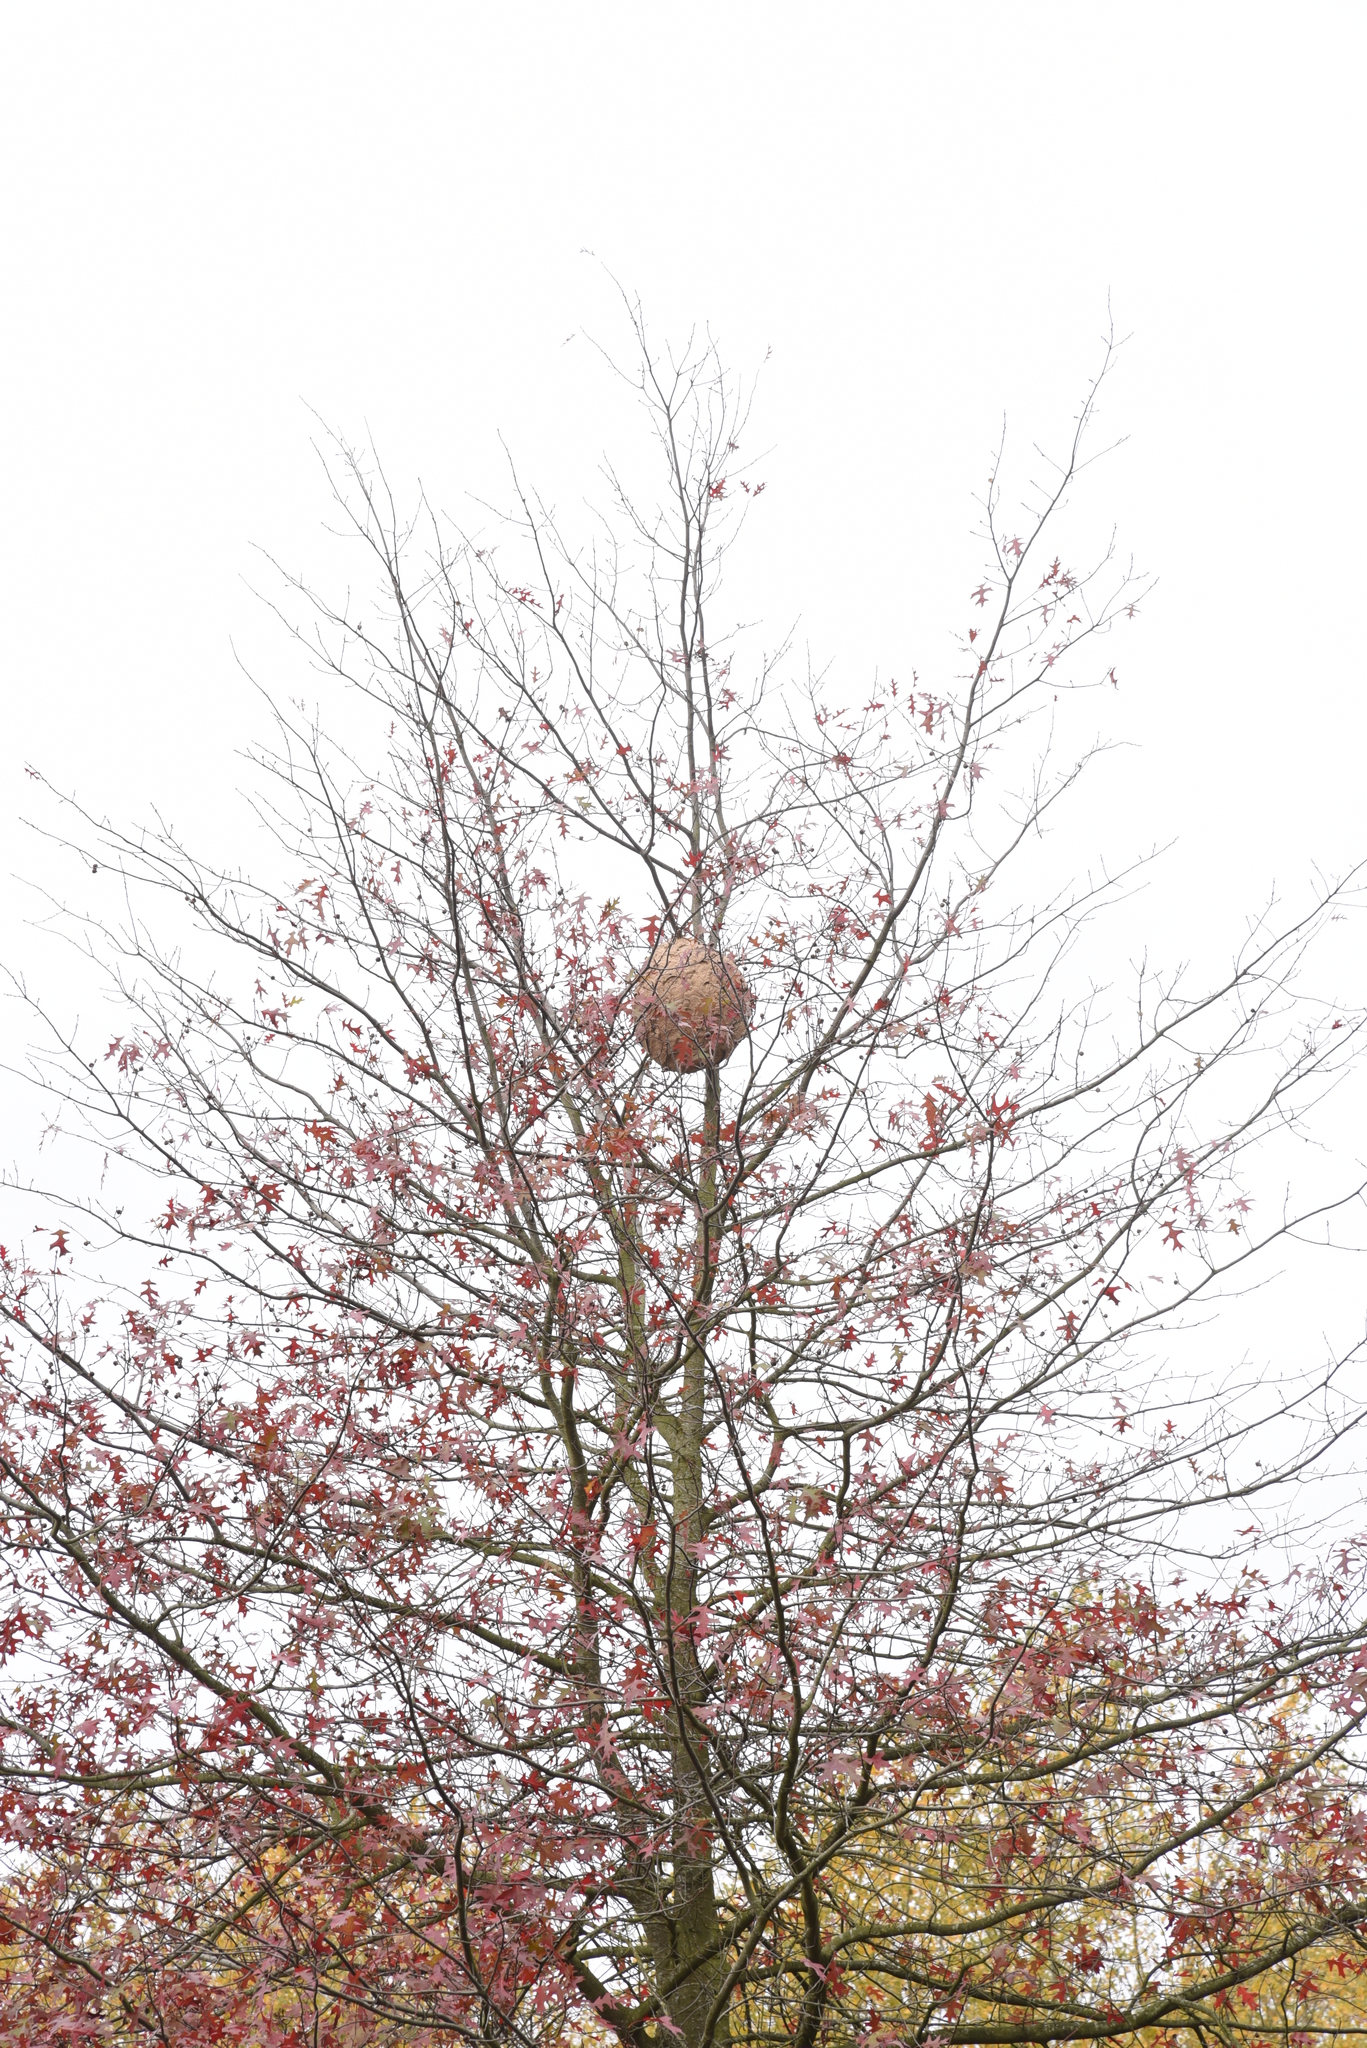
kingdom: Animalia
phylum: Arthropoda
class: Insecta
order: Hymenoptera
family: Vespidae
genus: Vespa
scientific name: Vespa velutina
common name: Asian hornet
